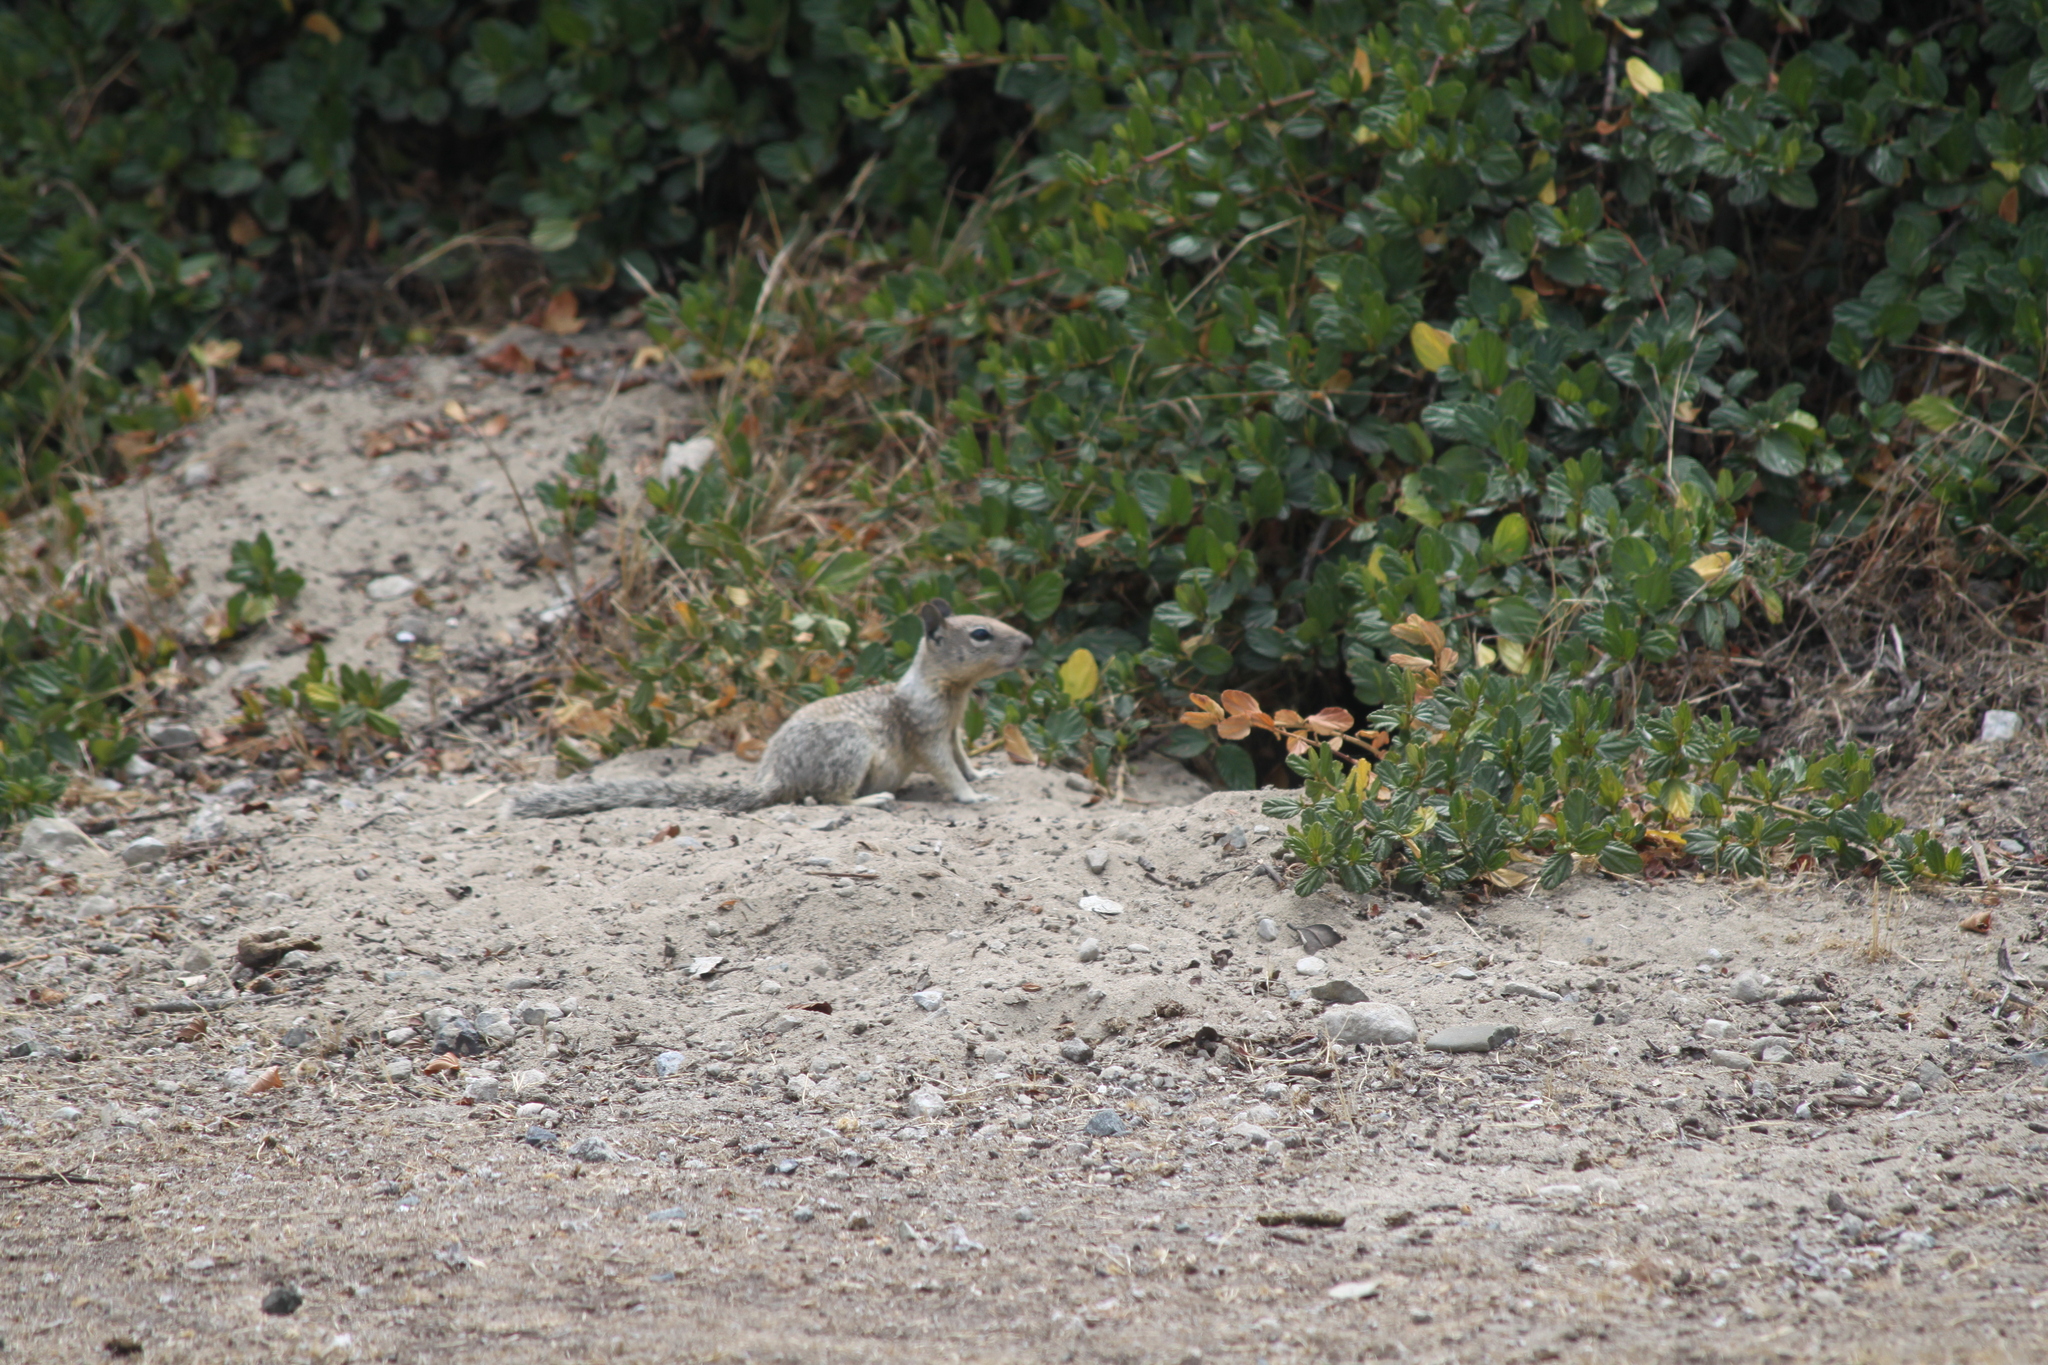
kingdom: Animalia
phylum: Chordata
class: Mammalia
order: Rodentia
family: Sciuridae
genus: Otospermophilus
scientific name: Otospermophilus beecheyi
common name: California ground squirrel
